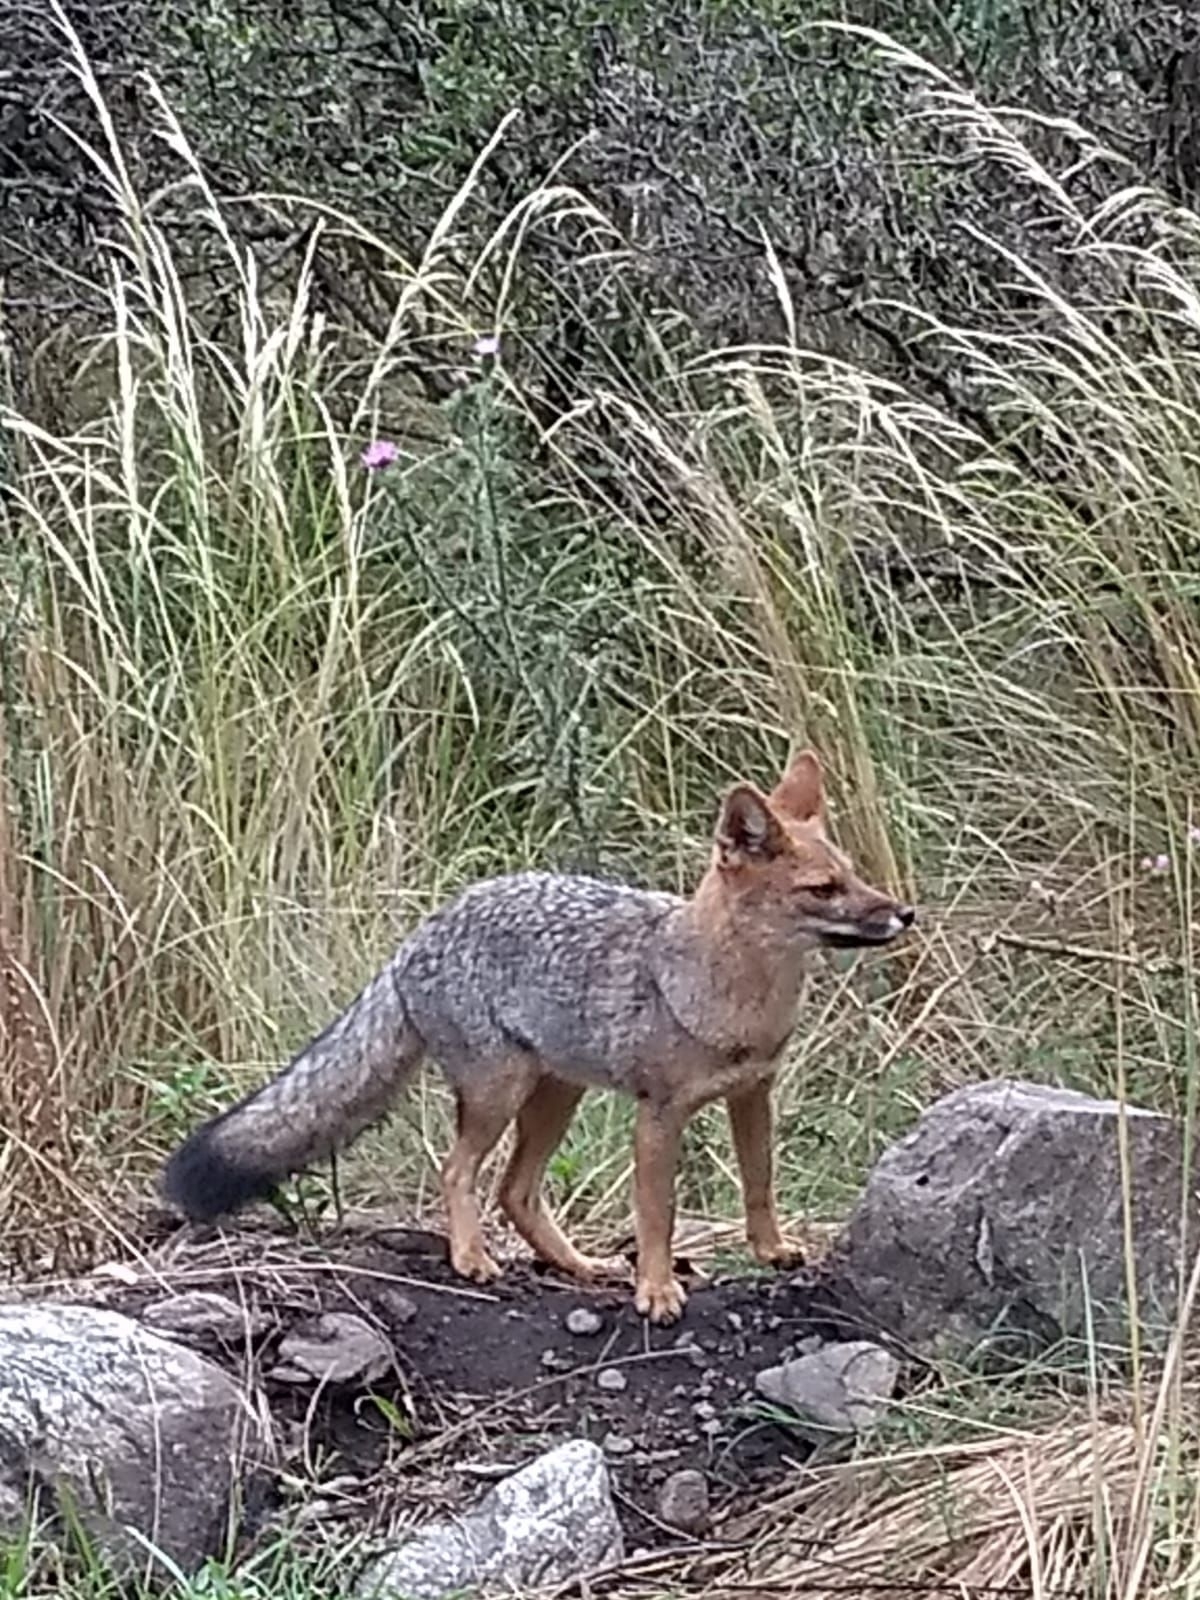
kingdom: Animalia
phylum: Chordata
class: Mammalia
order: Carnivora
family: Canidae
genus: Lycalopex
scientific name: Lycalopex gymnocercus
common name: Pampas fox
